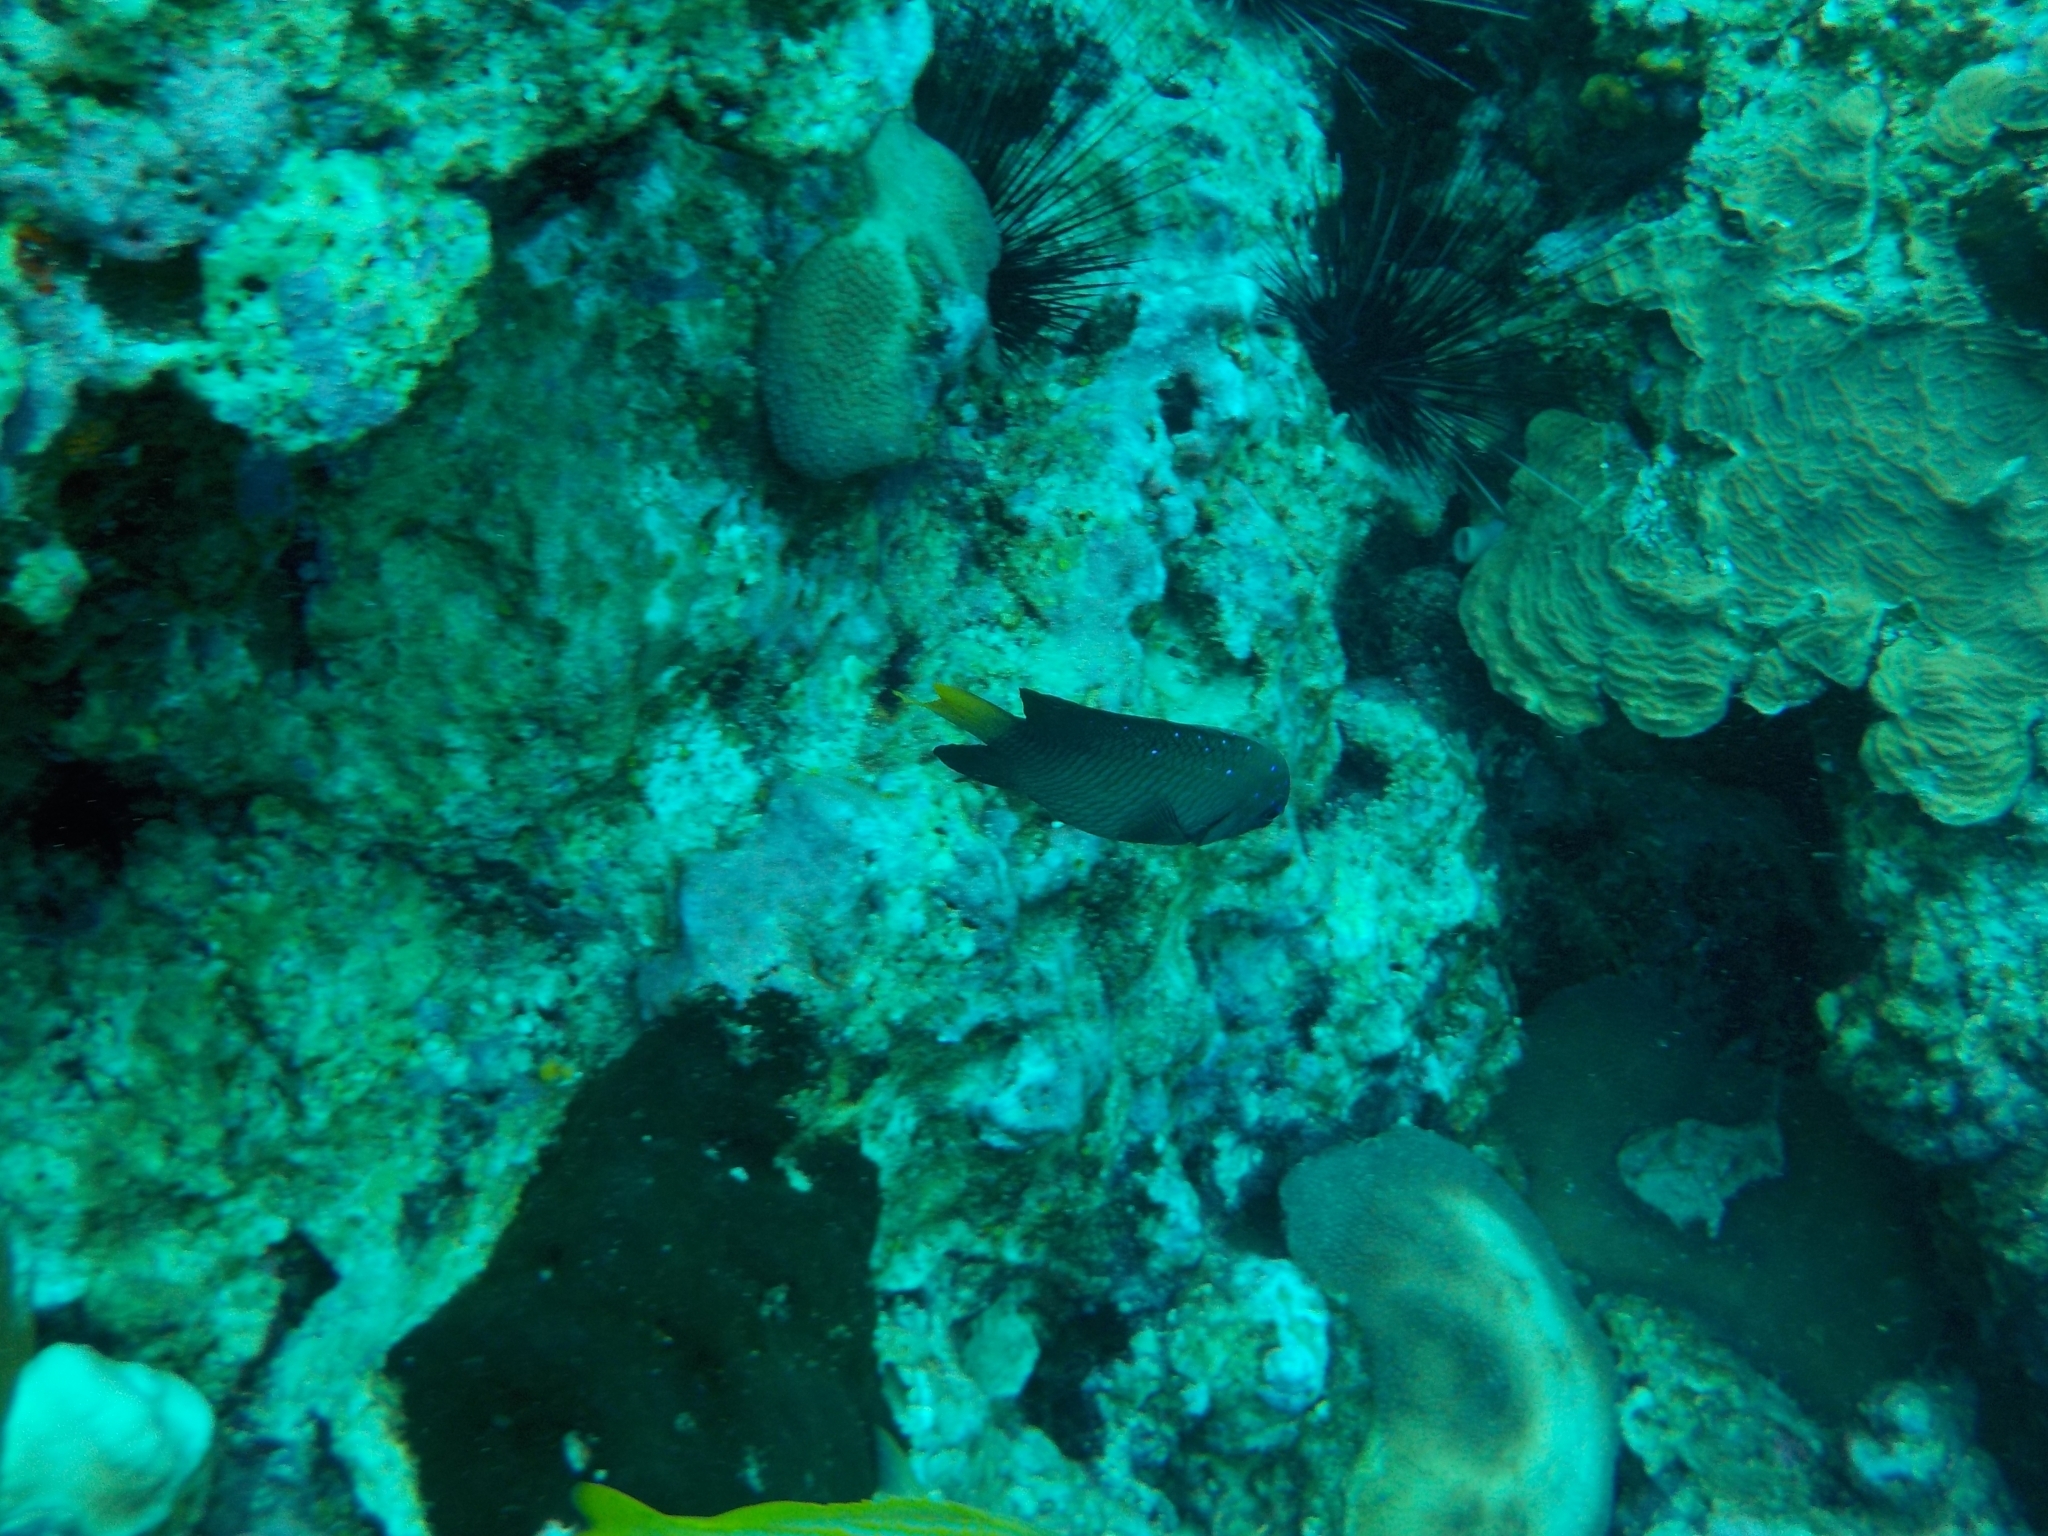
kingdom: Animalia
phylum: Chordata
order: Perciformes
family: Pomacentridae
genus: Microspathodon
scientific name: Microspathodon chrysurus
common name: Yellowtail damselfish
